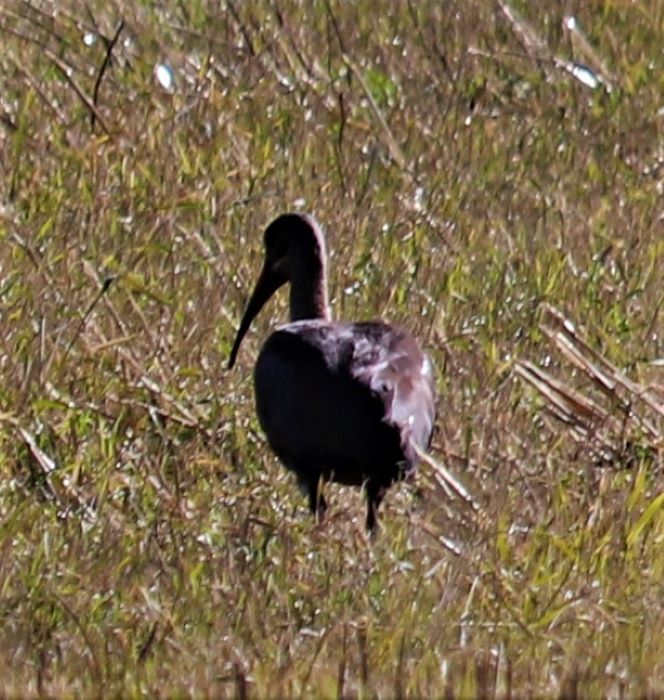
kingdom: Animalia
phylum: Chordata
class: Aves
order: Pelecaniformes
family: Threskiornithidae
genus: Bostrychia
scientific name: Bostrychia hagedash
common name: Hadada ibis
